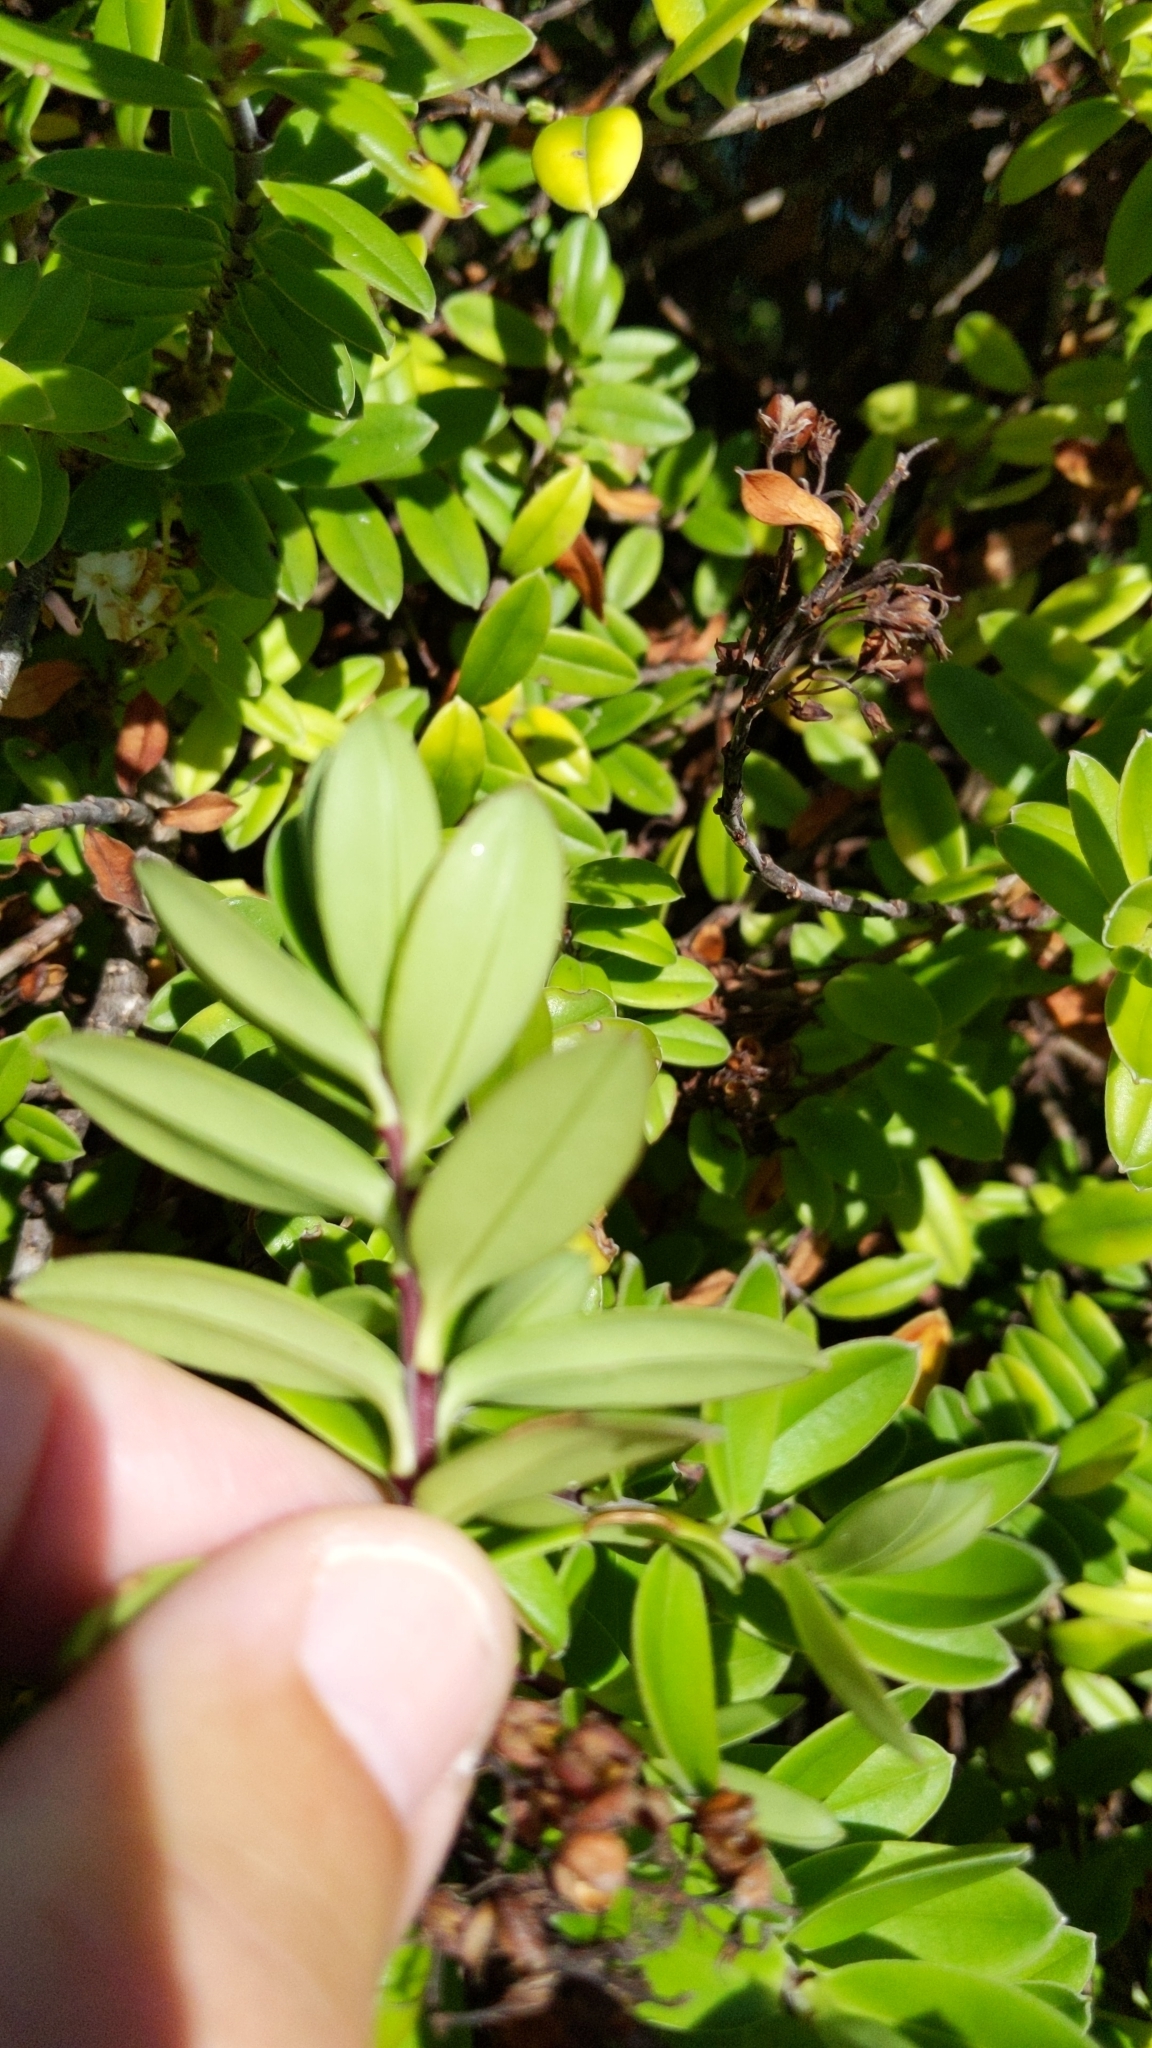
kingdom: Plantae
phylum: Tracheophyta
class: Magnoliopsida
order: Lamiales
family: Plantaginaceae
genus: Veronica
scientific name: Veronica elliptica
